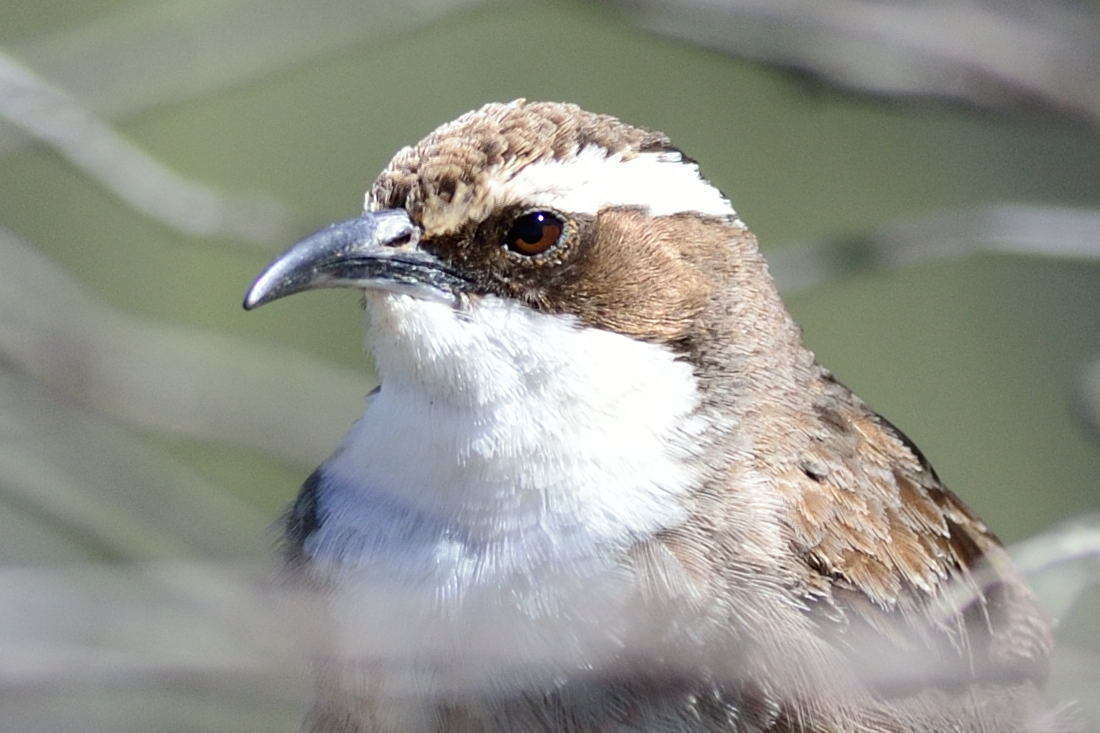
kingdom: Animalia
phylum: Chordata
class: Aves
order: Passeriformes
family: Pomatostomidae
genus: Pomatostomus
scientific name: Pomatostomus superciliosus
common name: White-browed babbler
